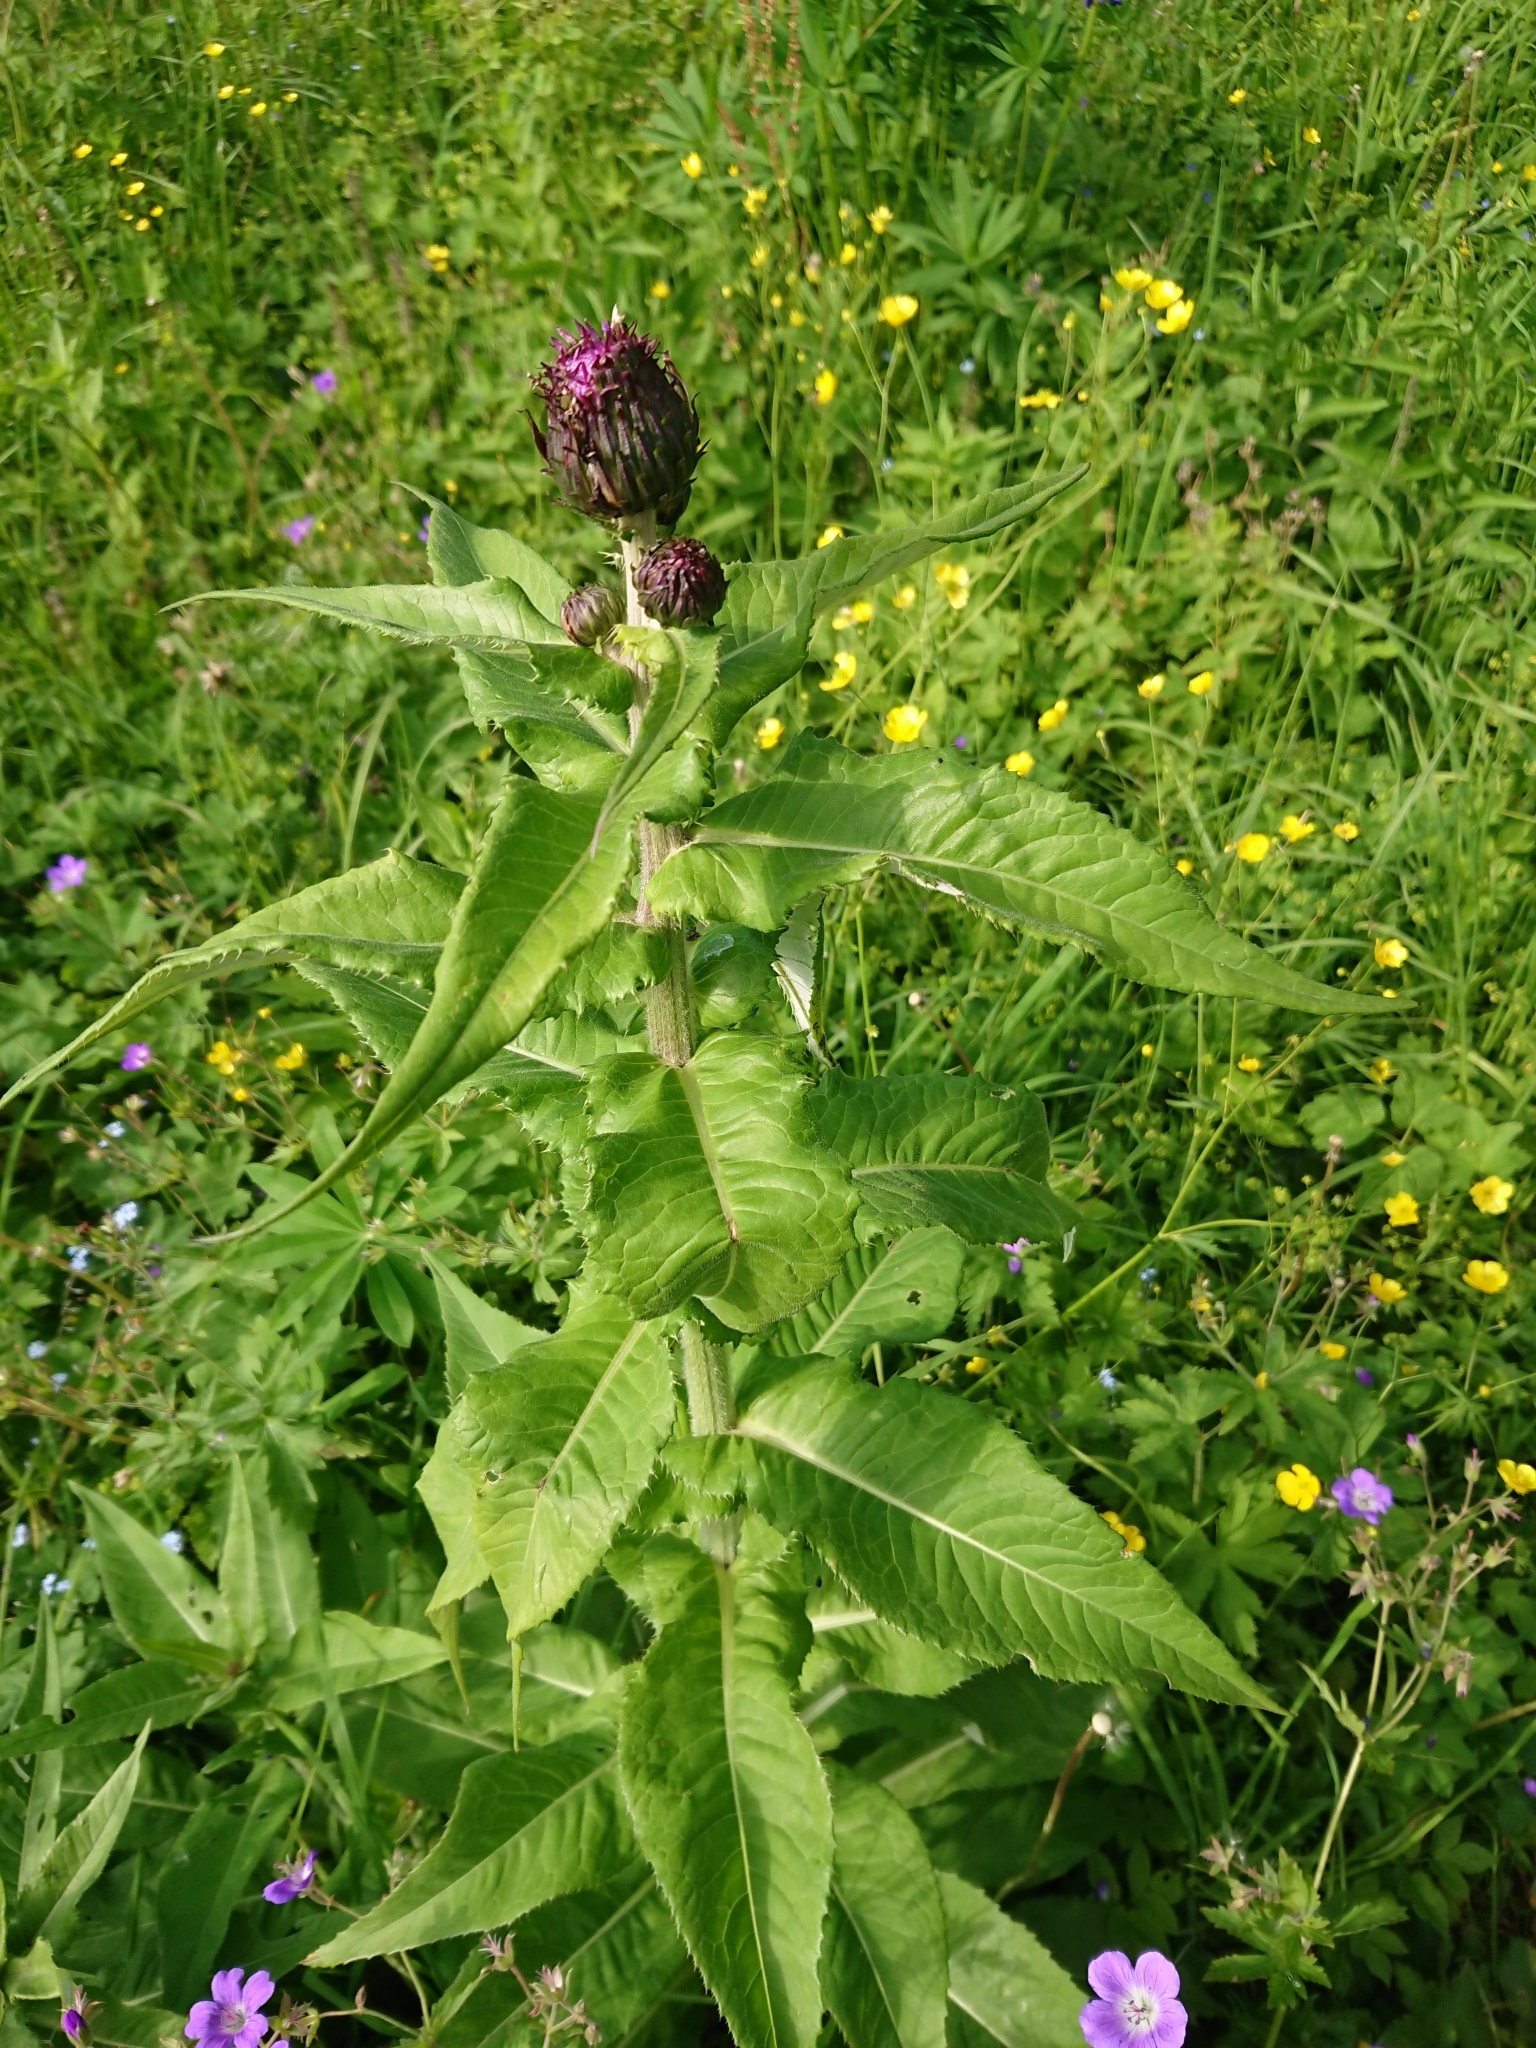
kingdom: Plantae
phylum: Tracheophyta
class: Magnoliopsida
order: Asterales
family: Asteraceae
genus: Cirsium
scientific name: Cirsium heterophyllum
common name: Melancholy thistle
